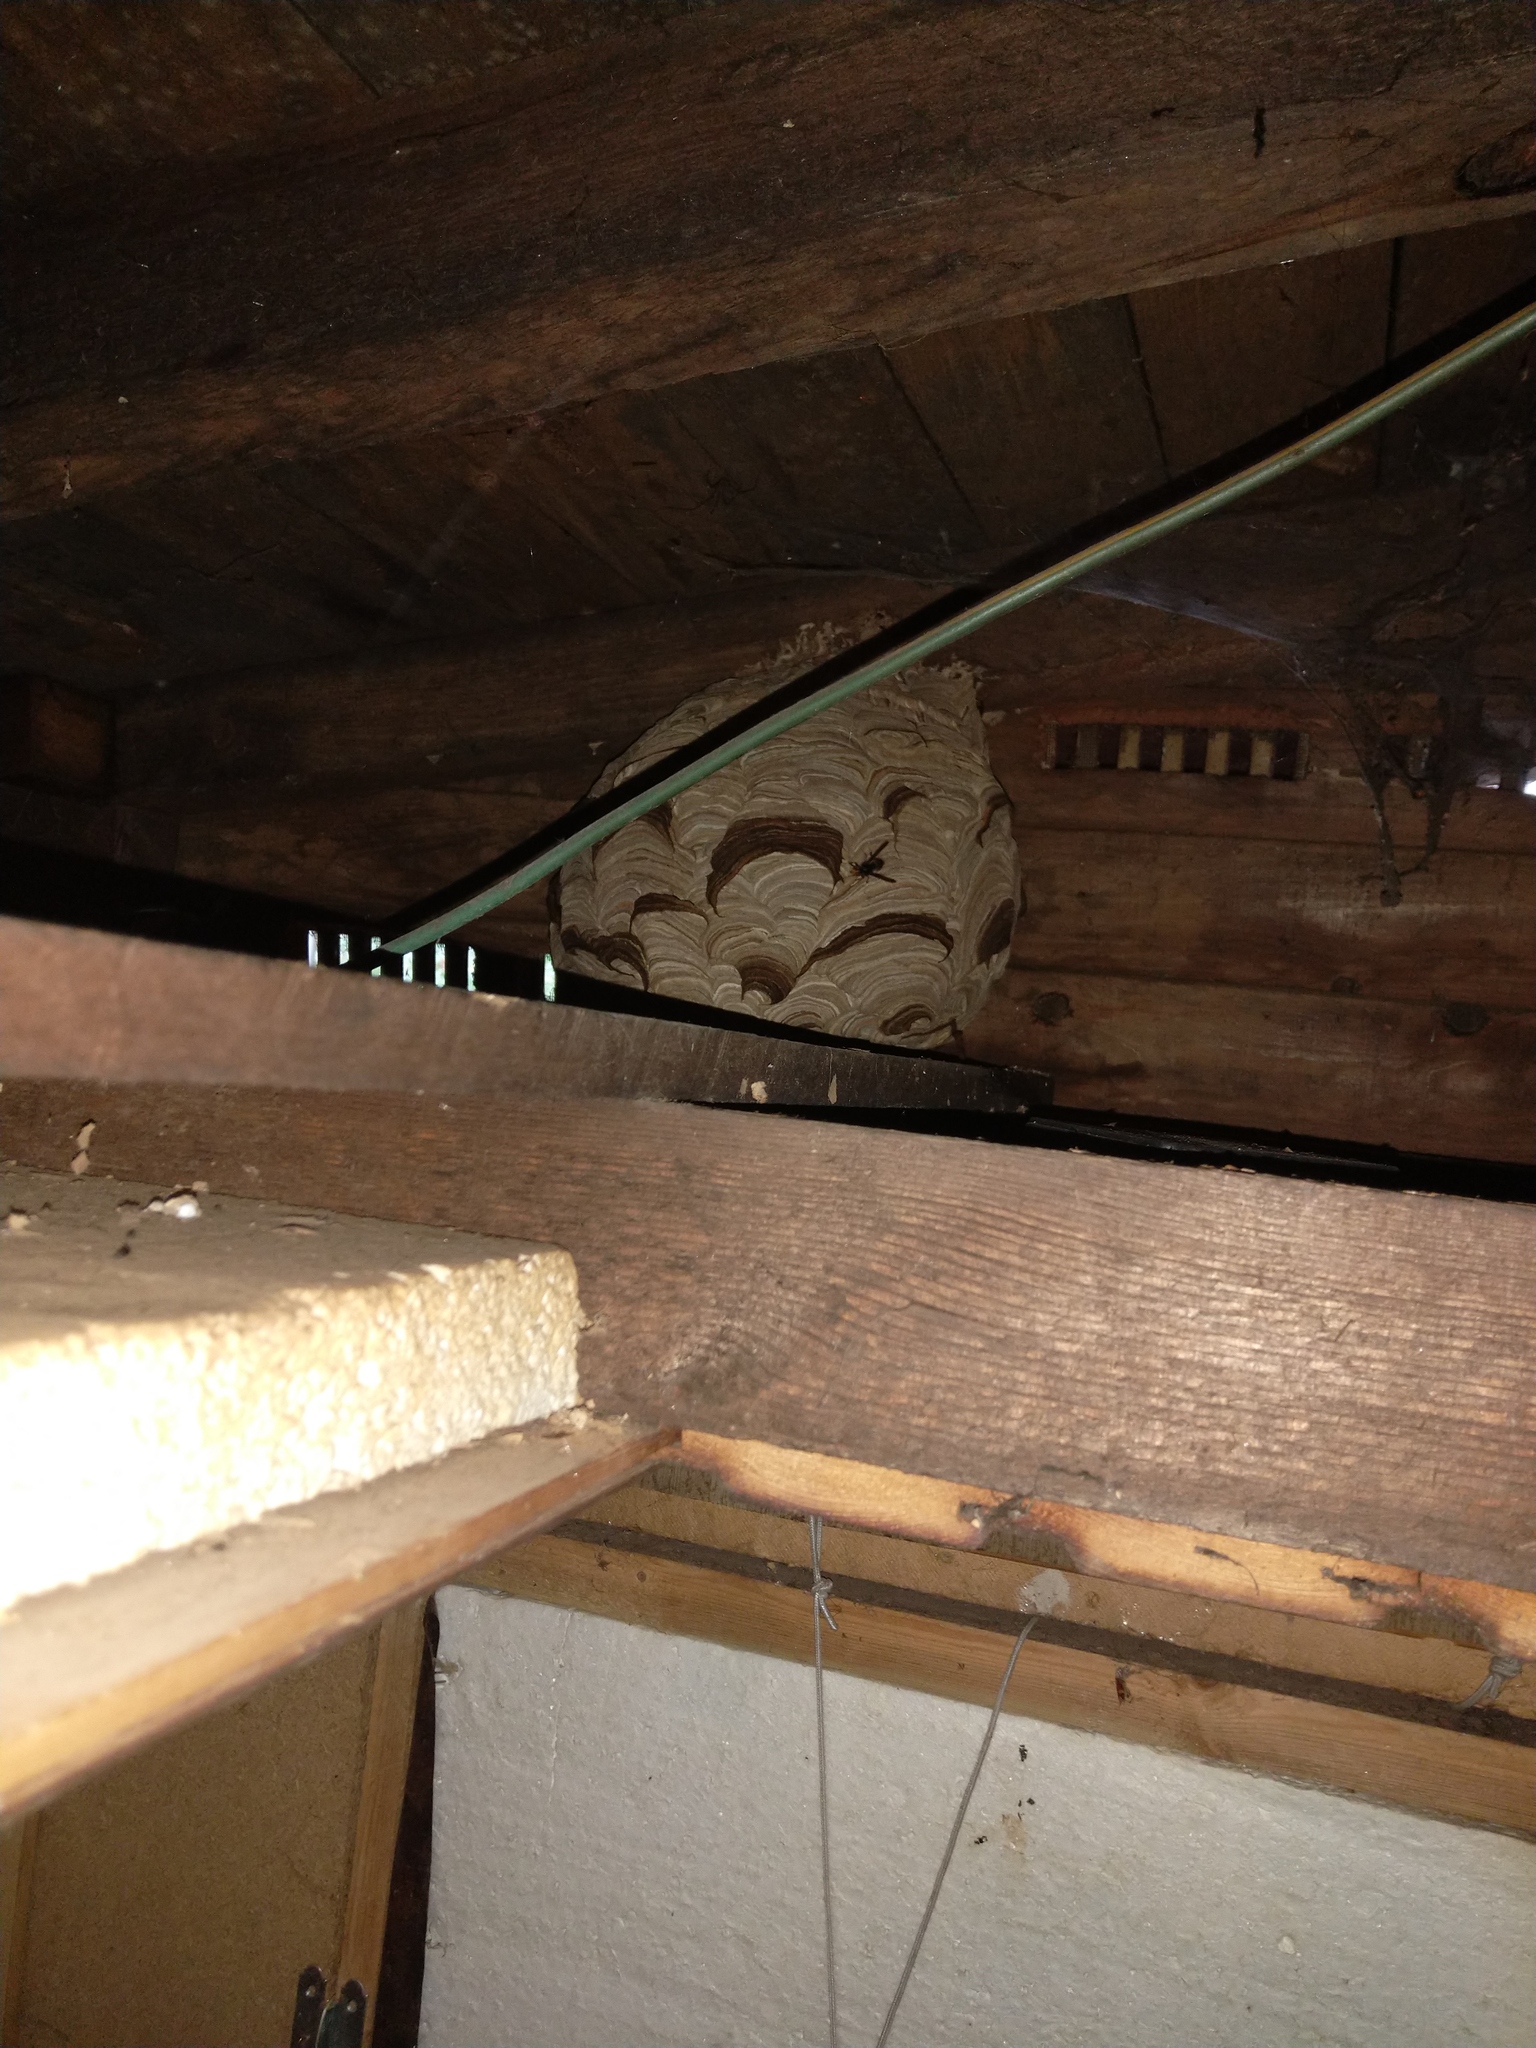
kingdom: Animalia
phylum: Arthropoda
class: Insecta
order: Hymenoptera
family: Vespidae
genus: Vespa
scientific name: Vespa velutina
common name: Asian hornet
